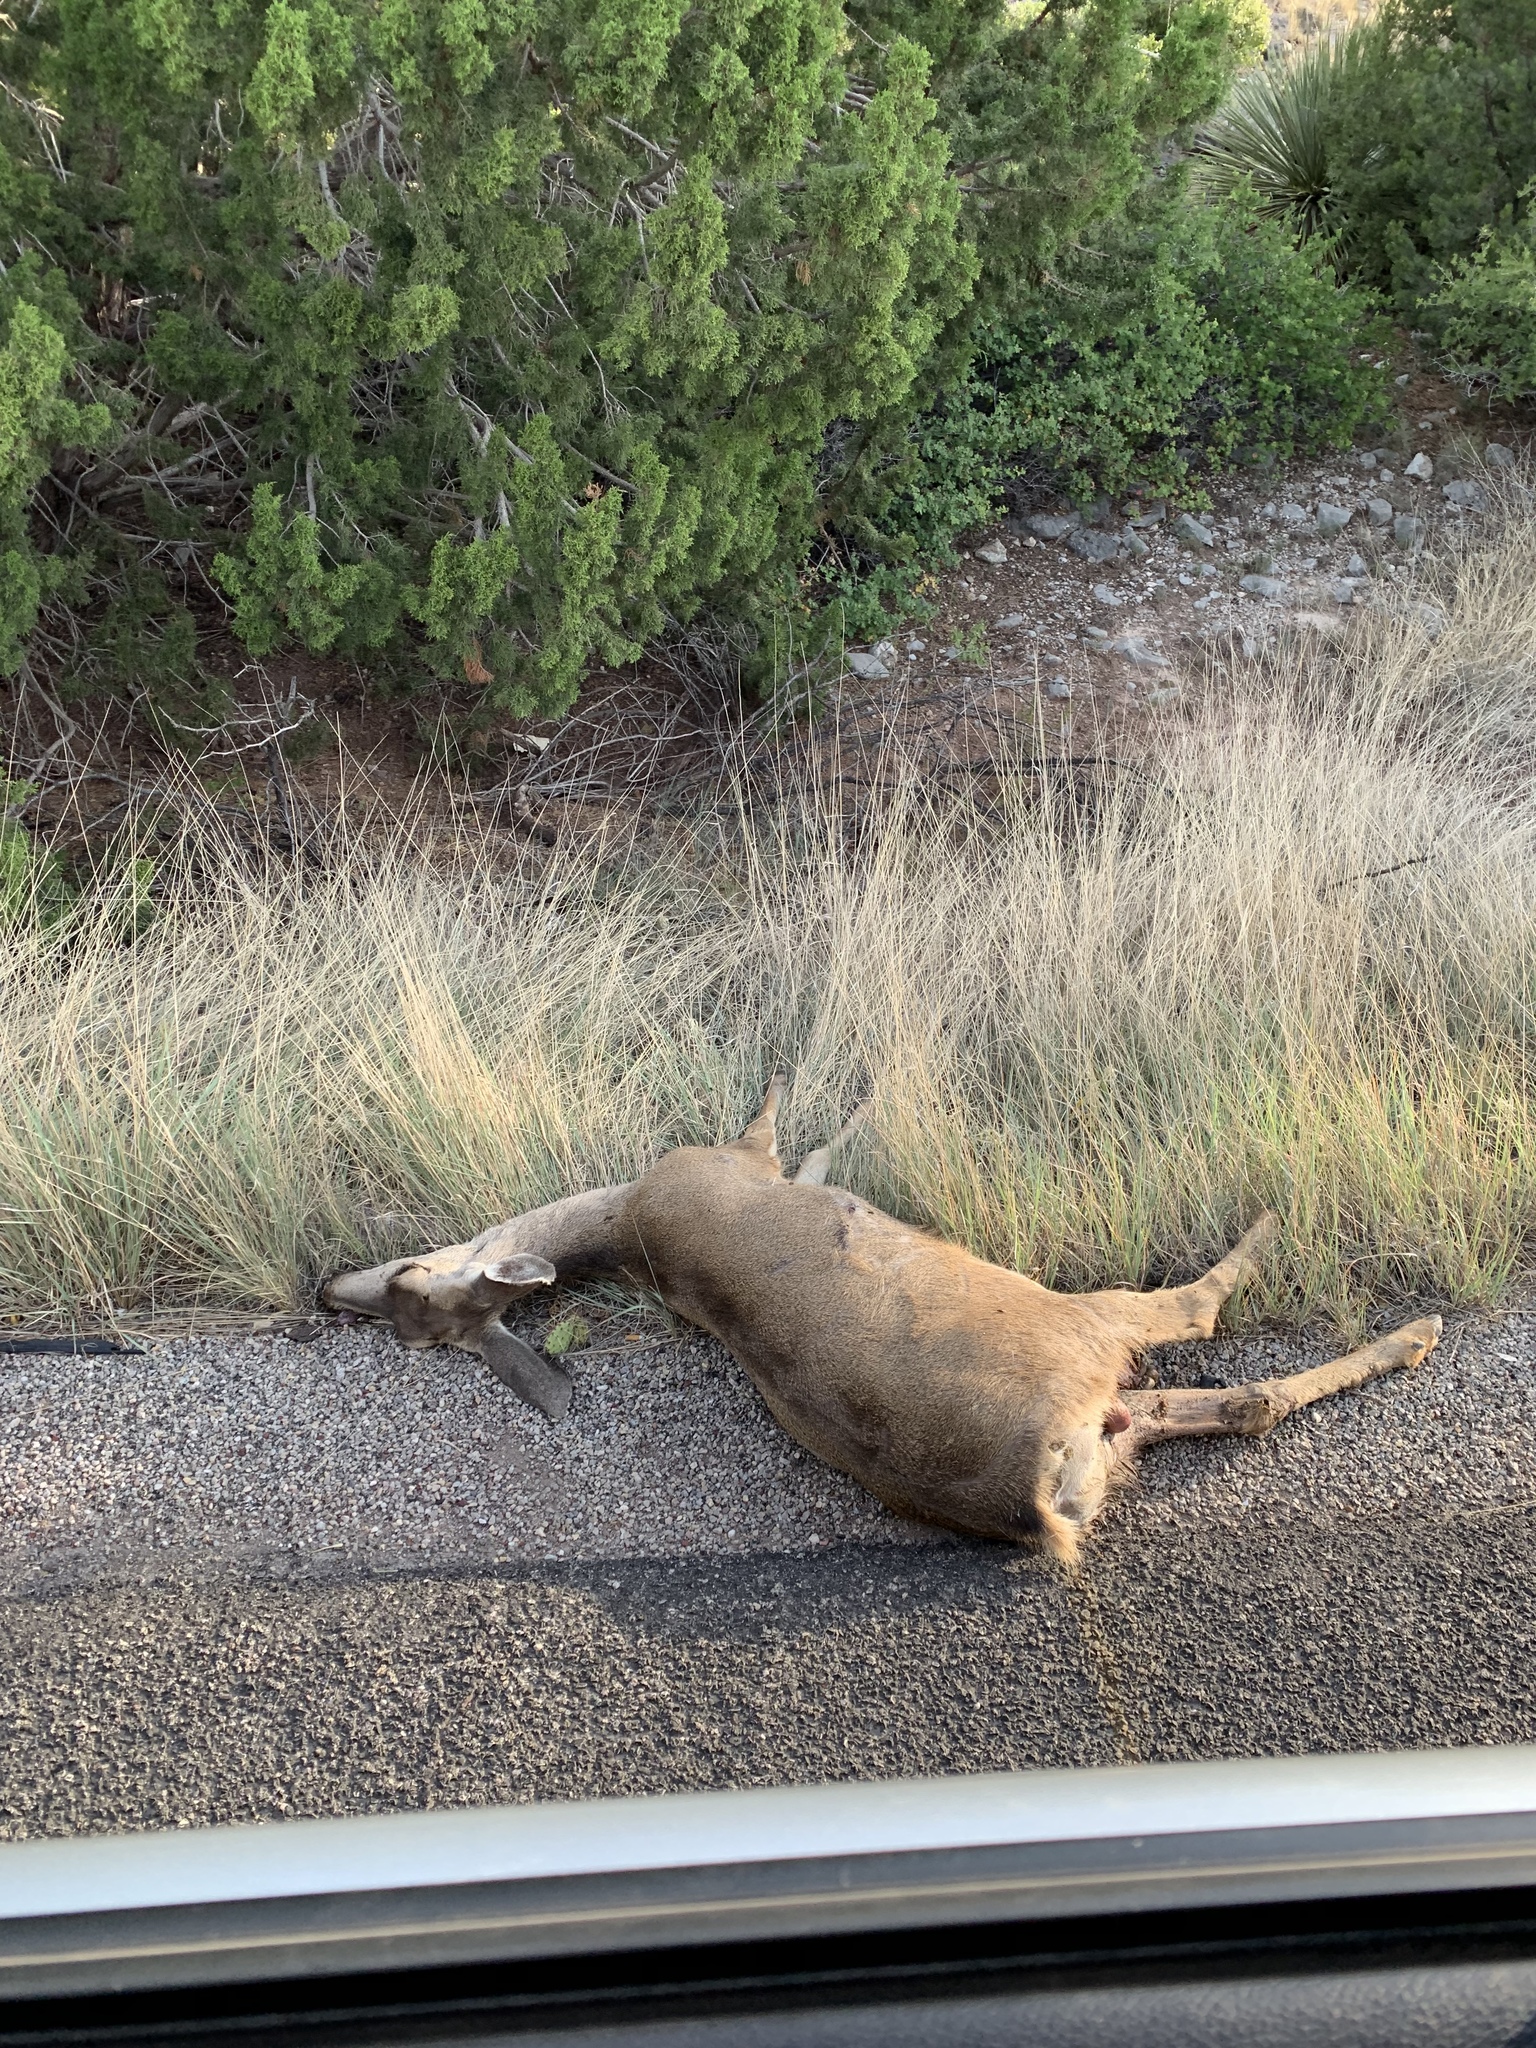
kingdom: Animalia
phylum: Chordata
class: Mammalia
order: Artiodactyla
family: Cervidae
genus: Odocoileus
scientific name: Odocoileus hemionus
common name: Mule deer
